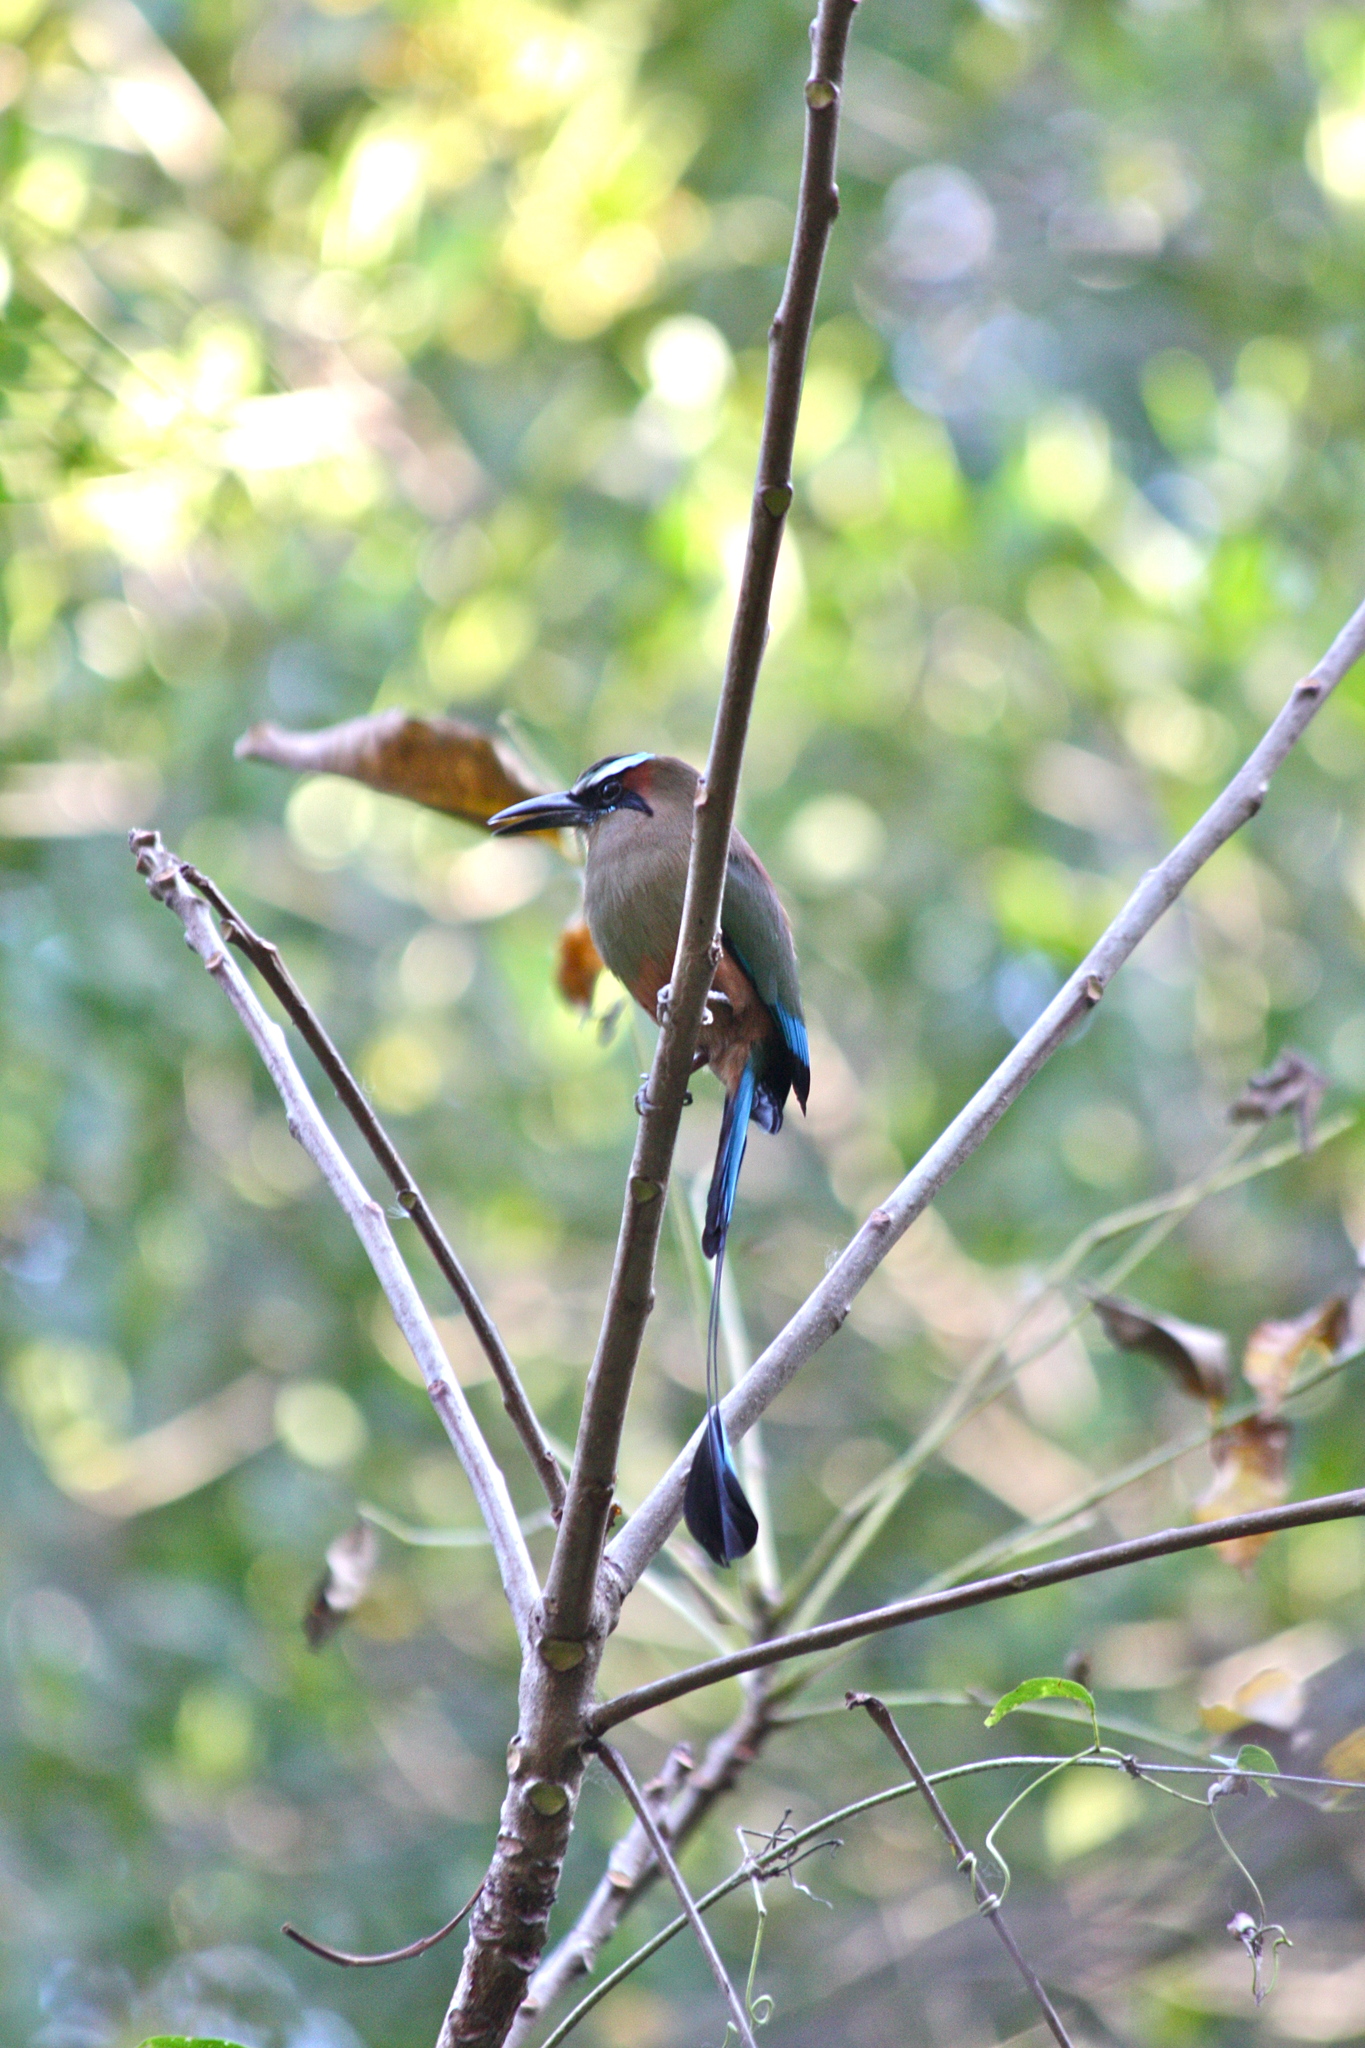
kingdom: Animalia
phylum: Chordata
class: Aves
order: Coraciiformes
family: Momotidae
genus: Eumomota
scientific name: Eumomota superciliosa
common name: Turquoise-browed motmot
